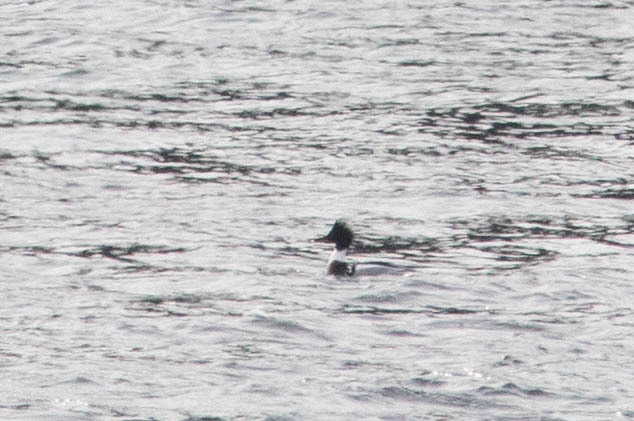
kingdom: Animalia
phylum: Chordata
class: Aves
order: Anseriformes
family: Anatidae
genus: Mergus
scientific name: Mergus serrator
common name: Red-breasted merganser
